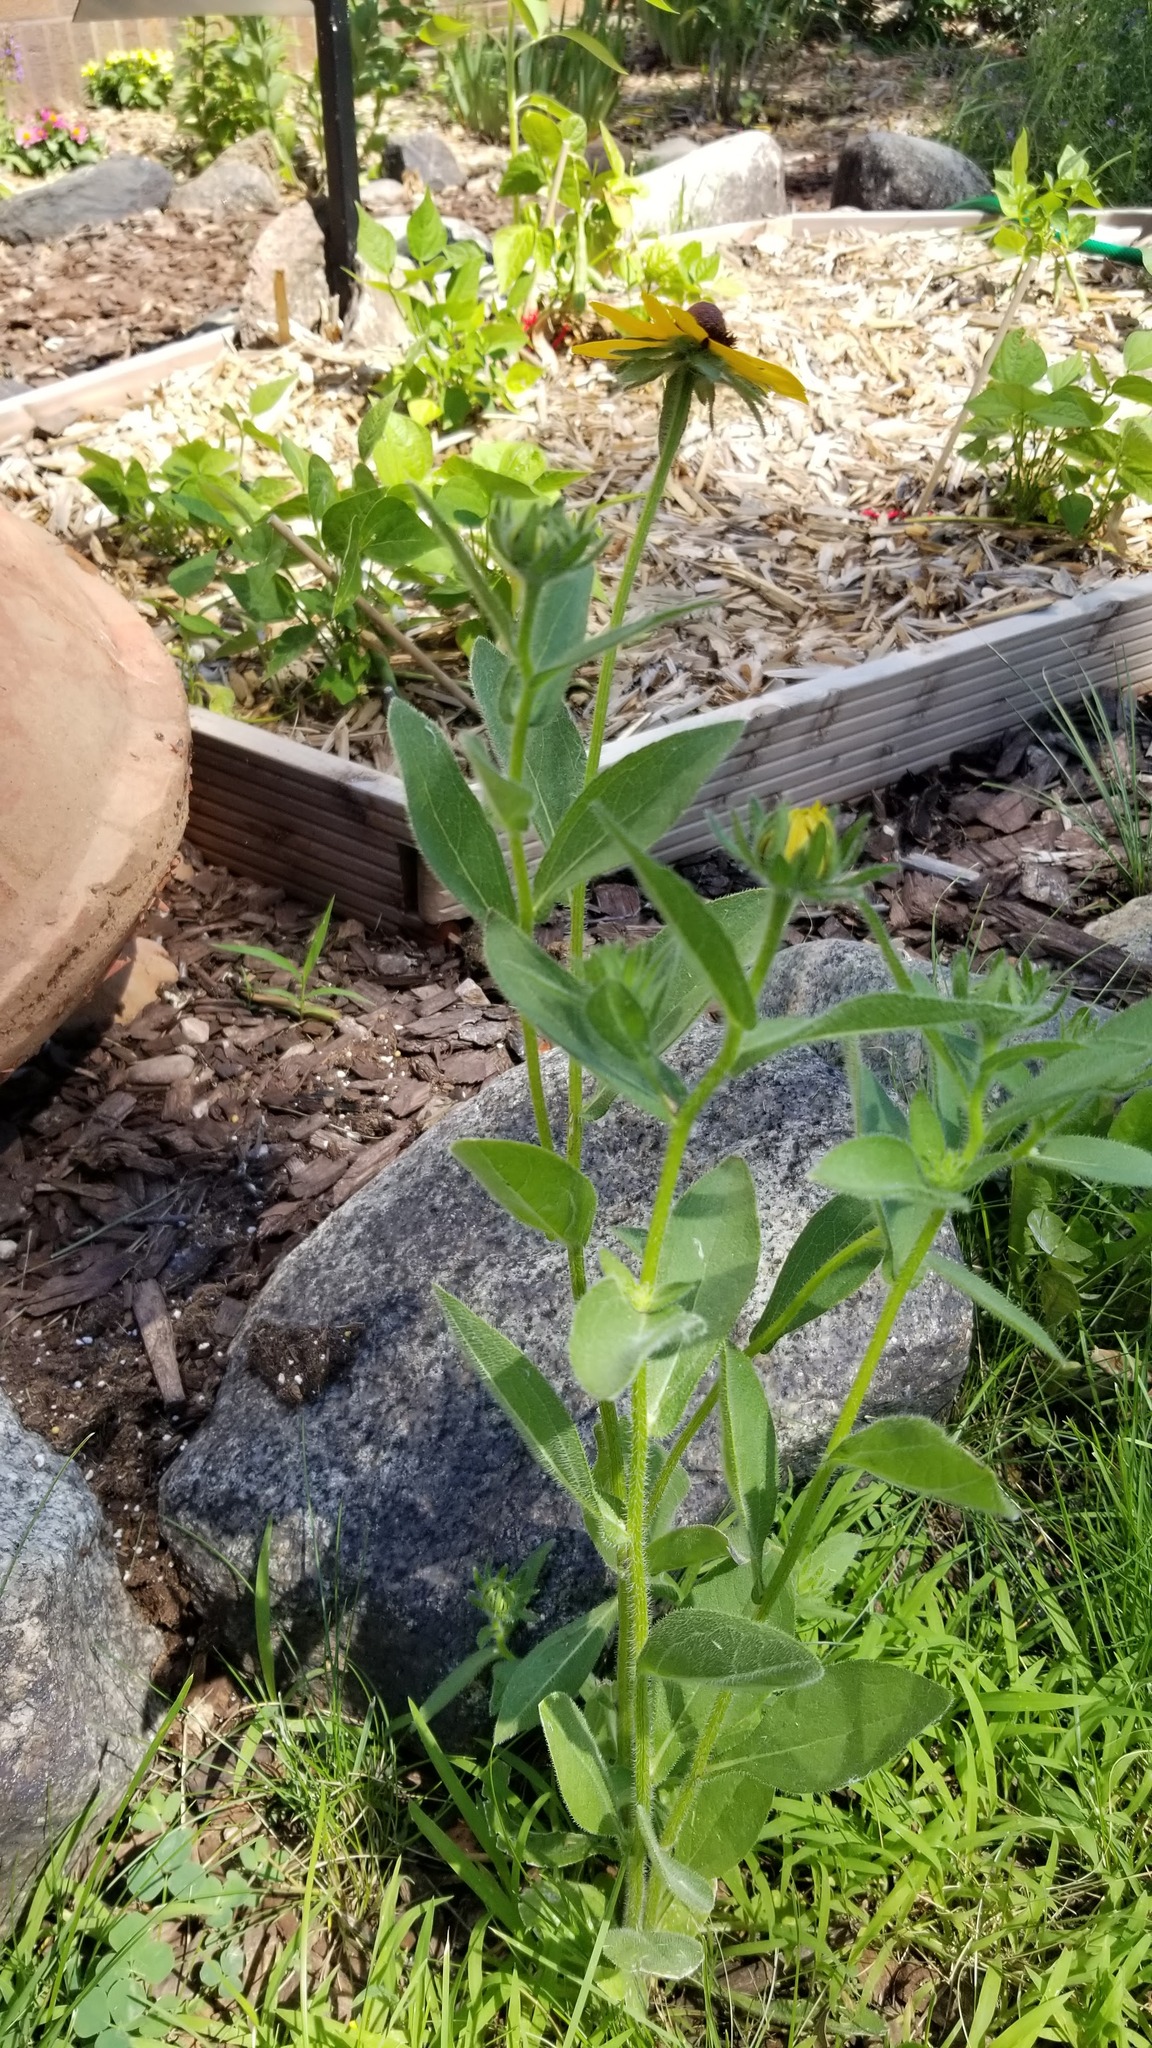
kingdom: Plantae
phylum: Tracheophyta
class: Magnoliopsida
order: Asterales
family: Asteraceae
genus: Rudbeckia
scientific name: Rudbeckia hirta
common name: Black-eyed-susan
